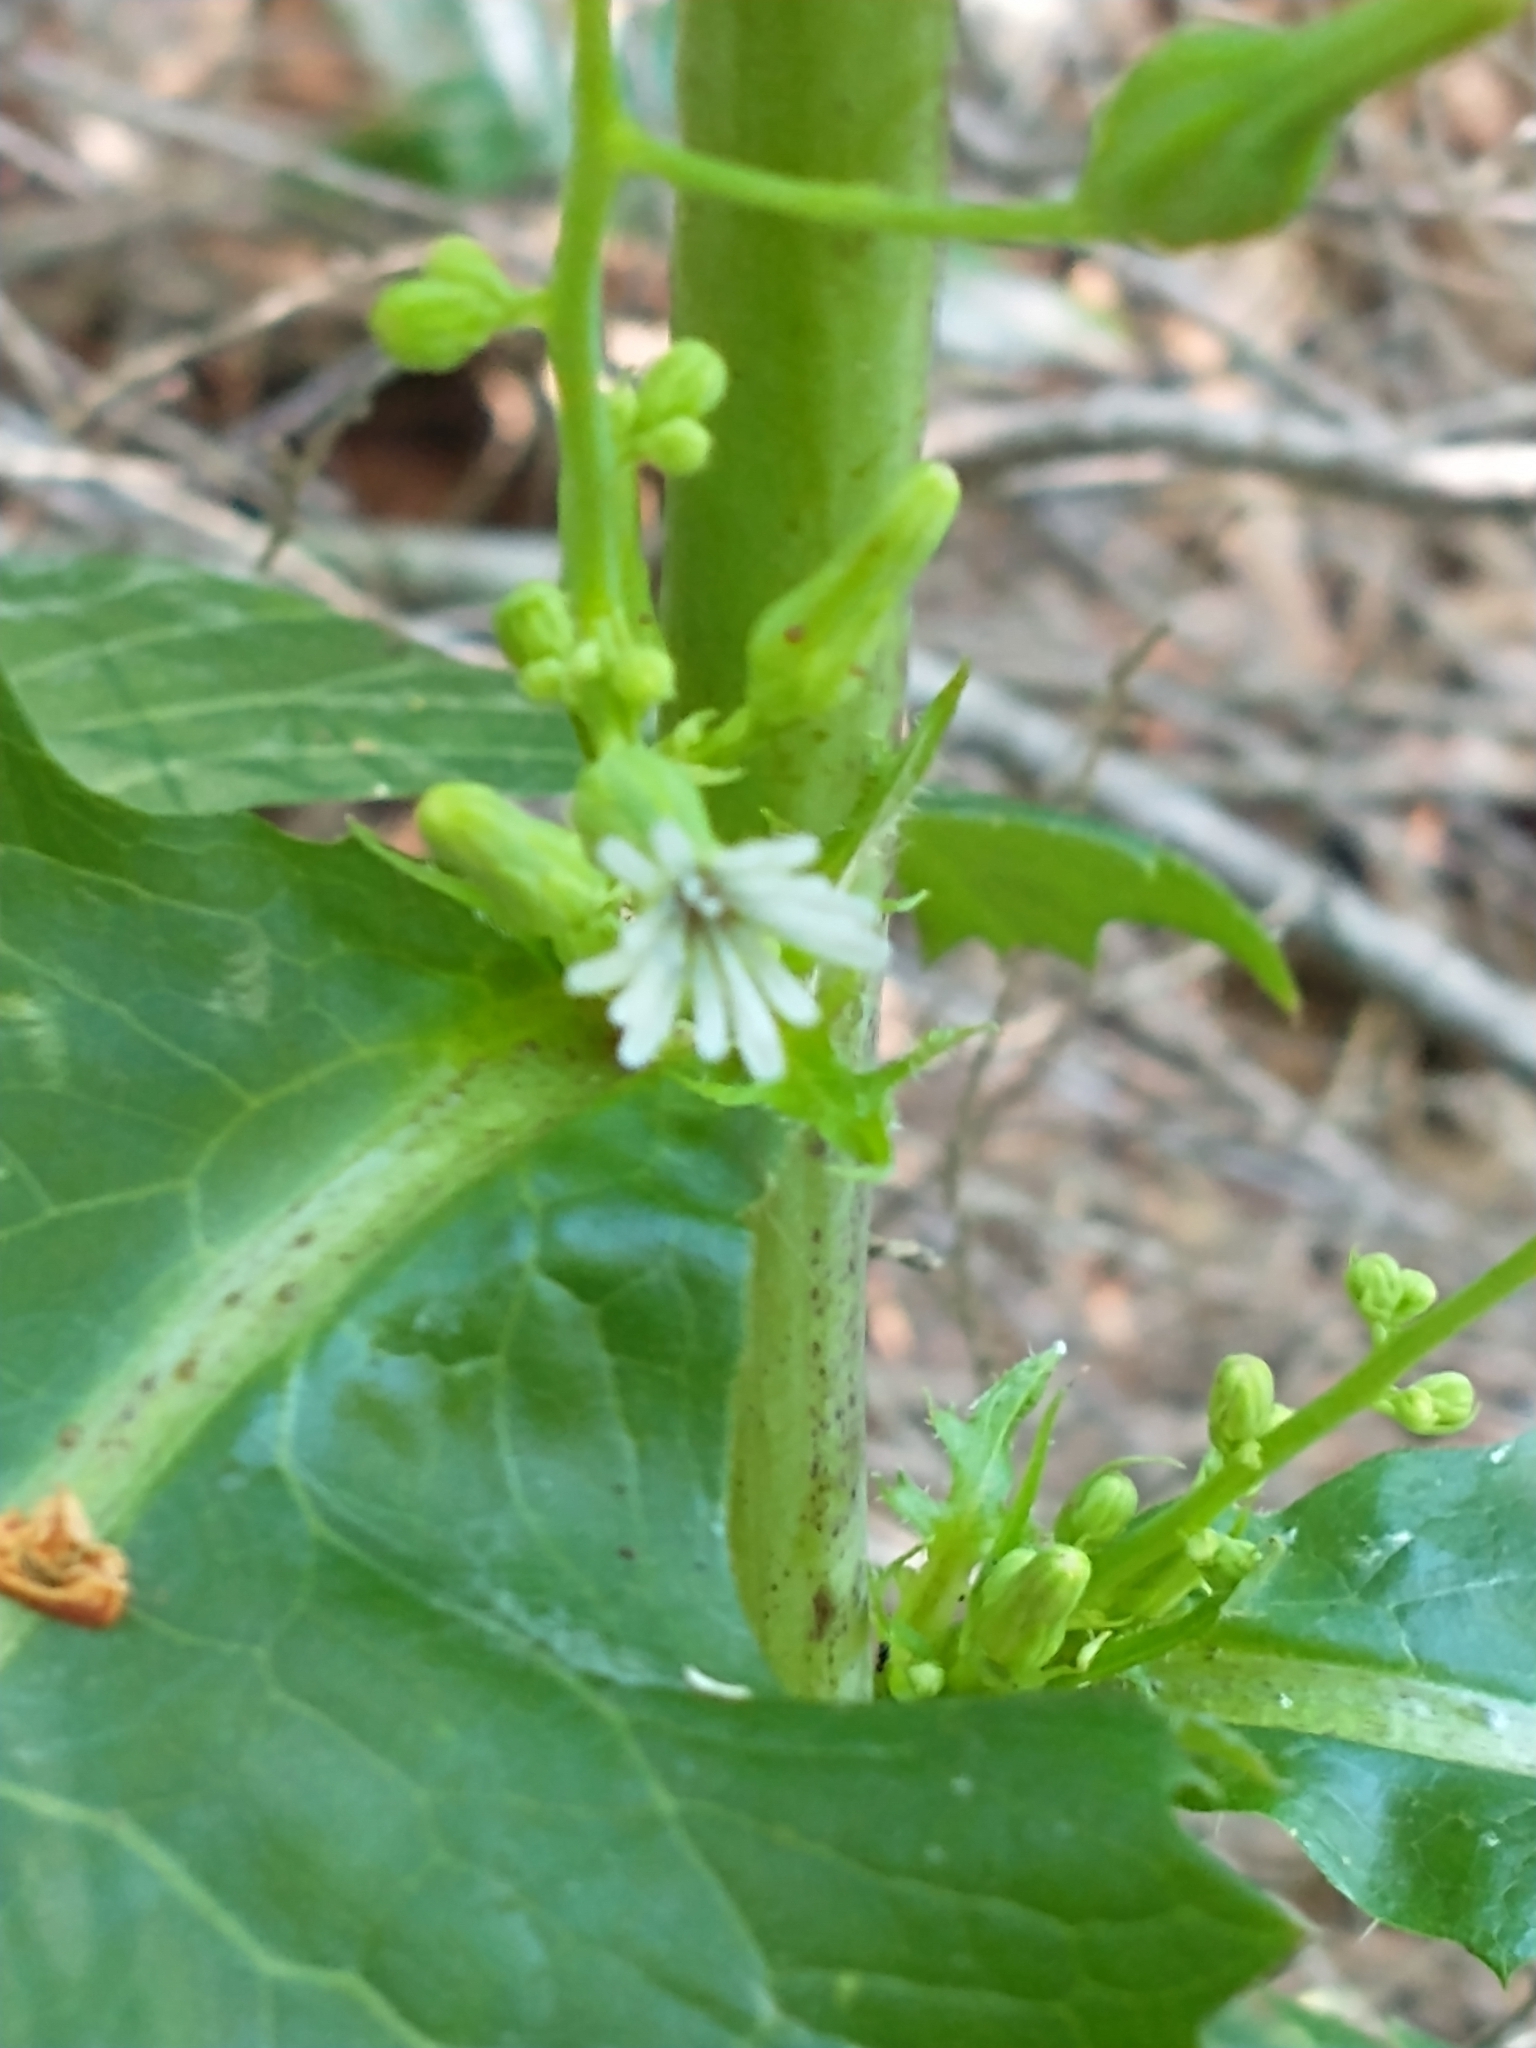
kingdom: Plantae
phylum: Tracheophyta
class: Magnoliopsida
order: Asterales
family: Asteraceae
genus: Lactuca
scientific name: Lactuca biennis
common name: Blue wood lettuce
